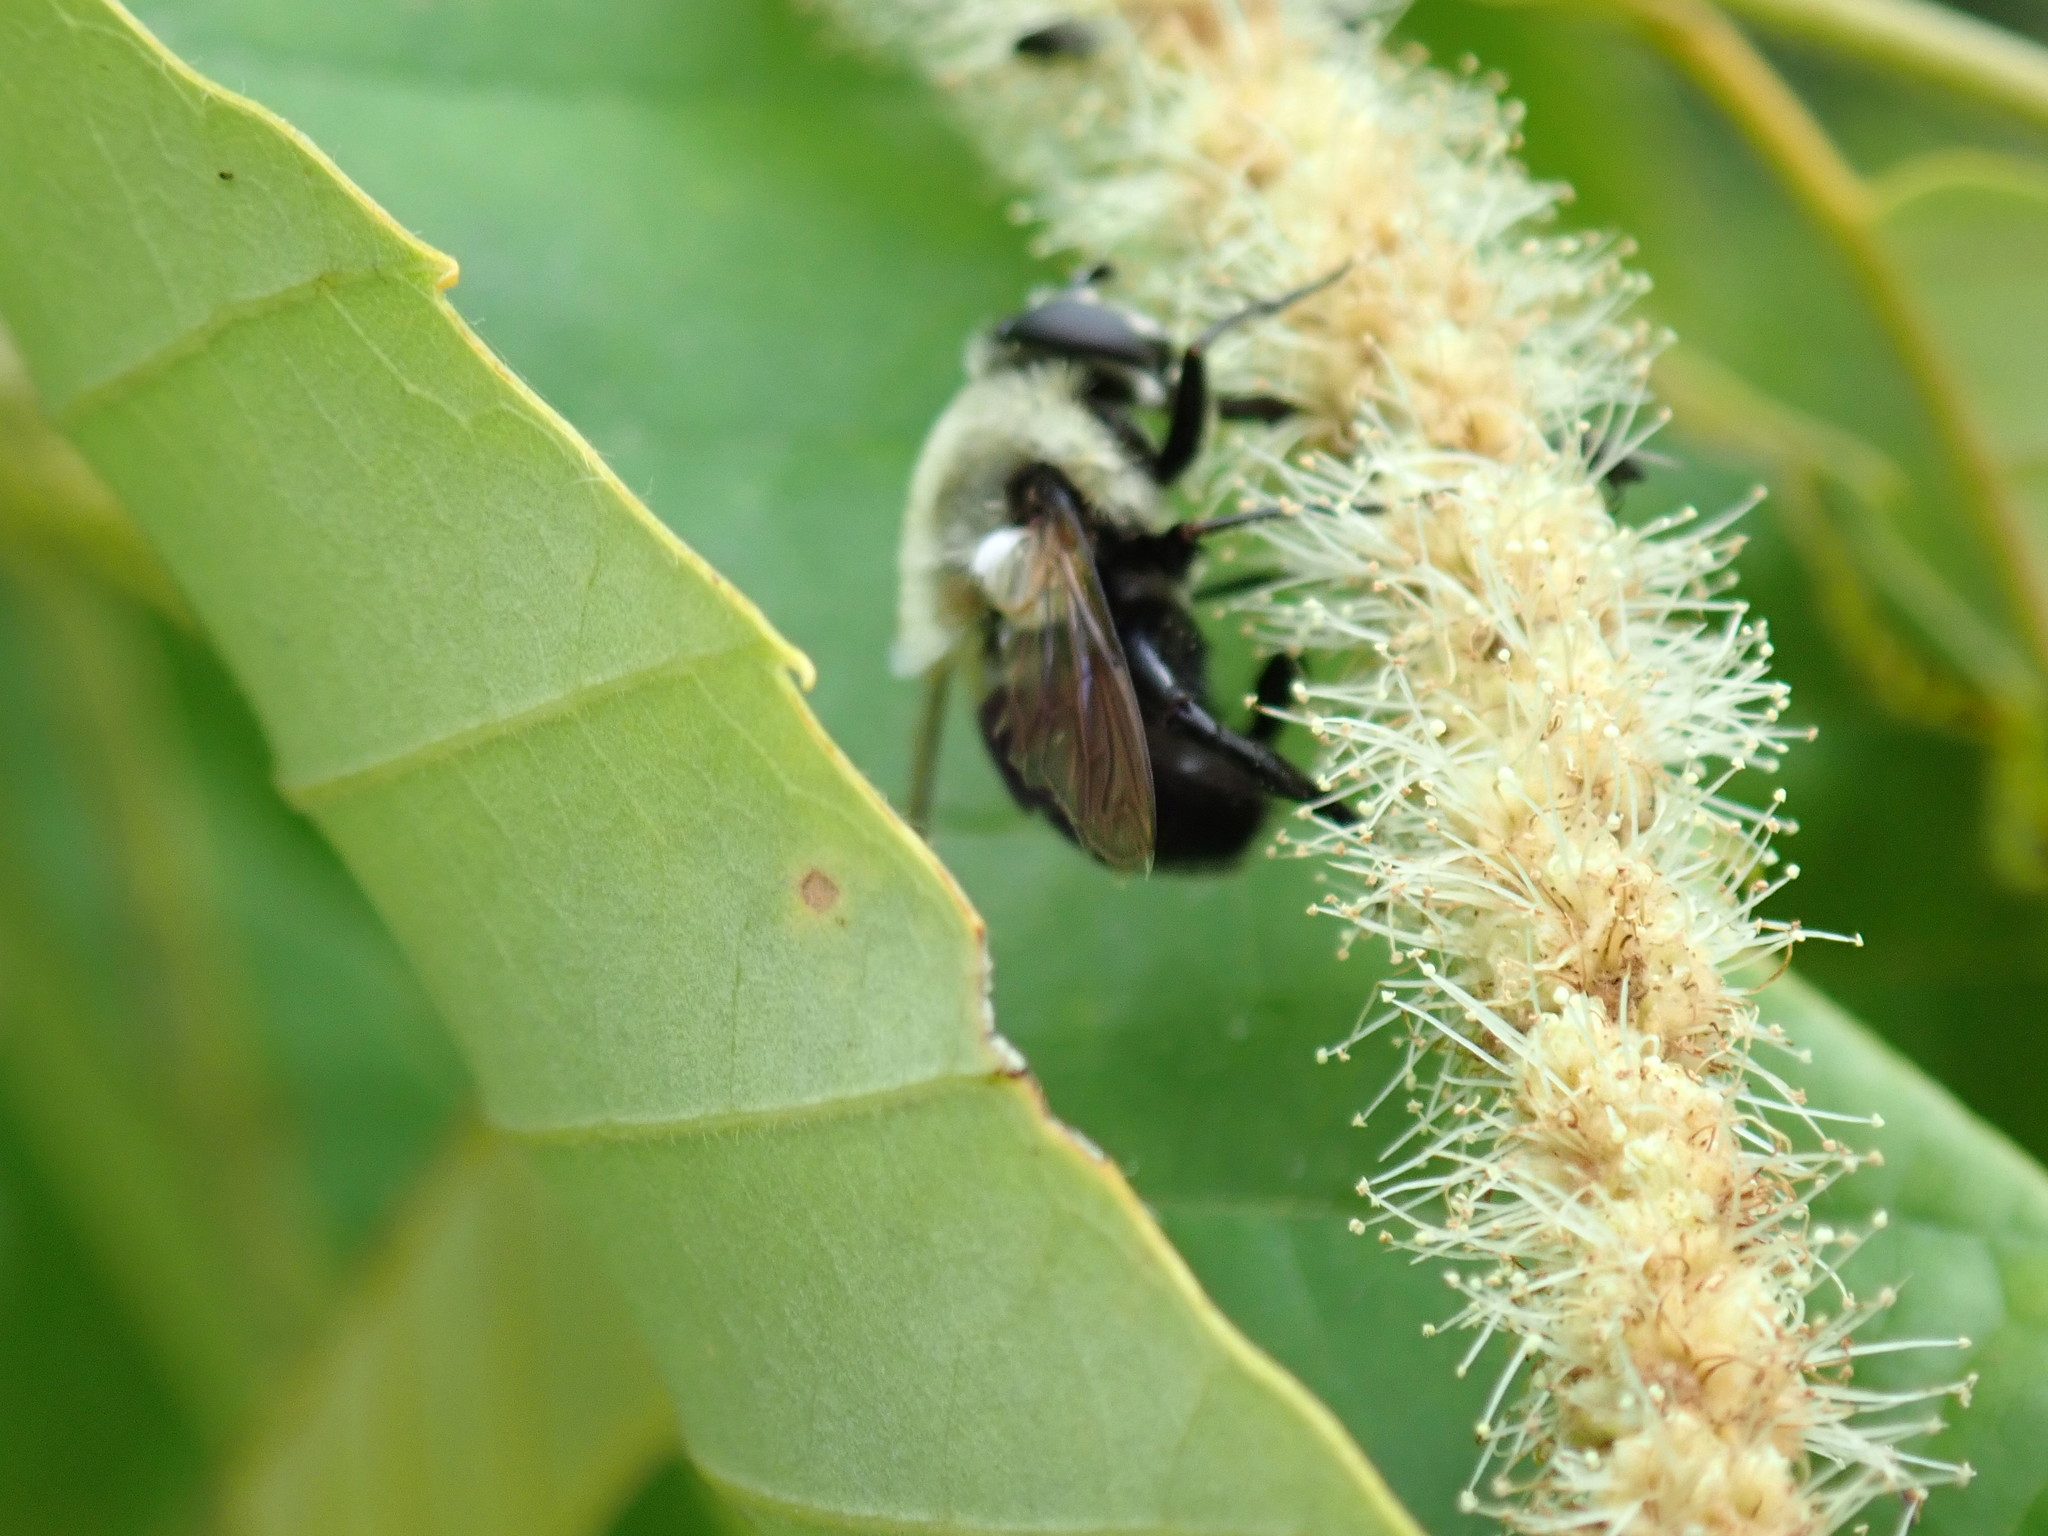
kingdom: Animalia
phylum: Arthropoda
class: Insecta
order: Diptera
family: Syrphidae
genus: Imatisma
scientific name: Imatisma bautias
